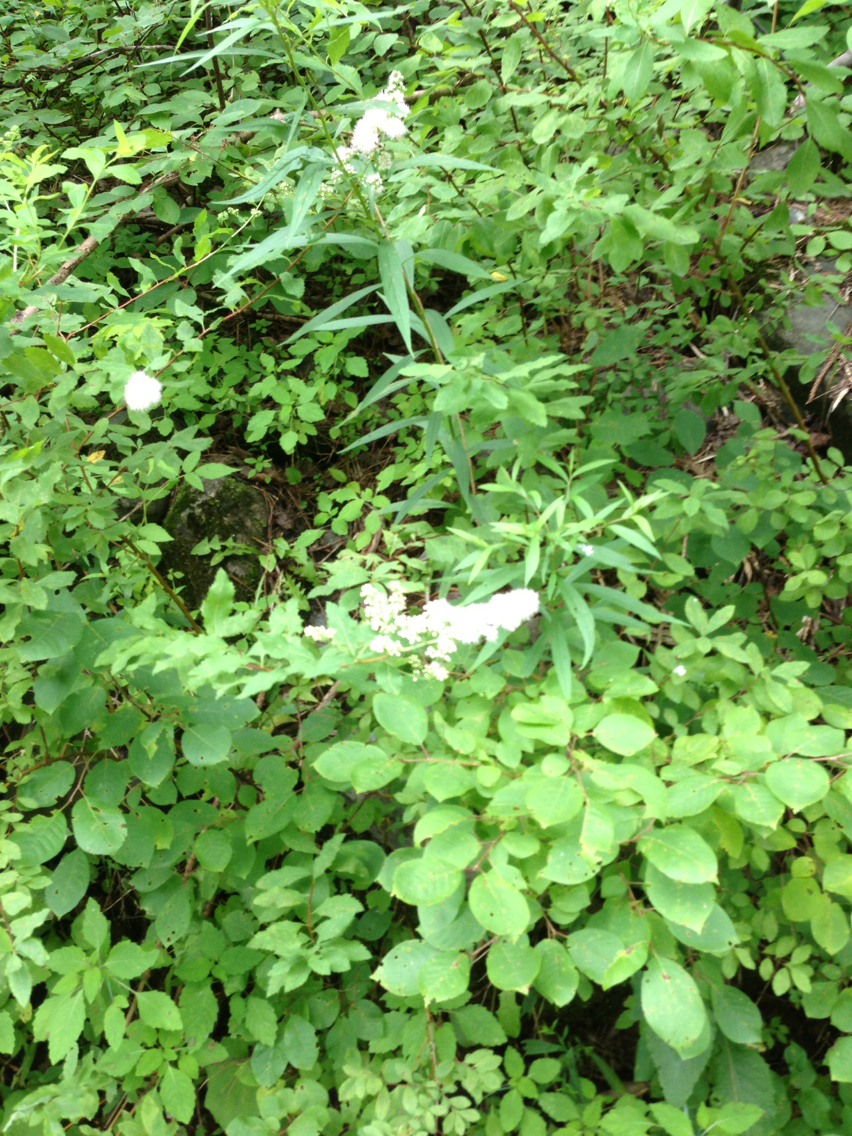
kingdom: Plantae
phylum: Tracheophyta
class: Magnoliopsida
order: Rosales
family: Rosaceae
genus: Spiraea
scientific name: Spiraea alba
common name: Pale bridewort
